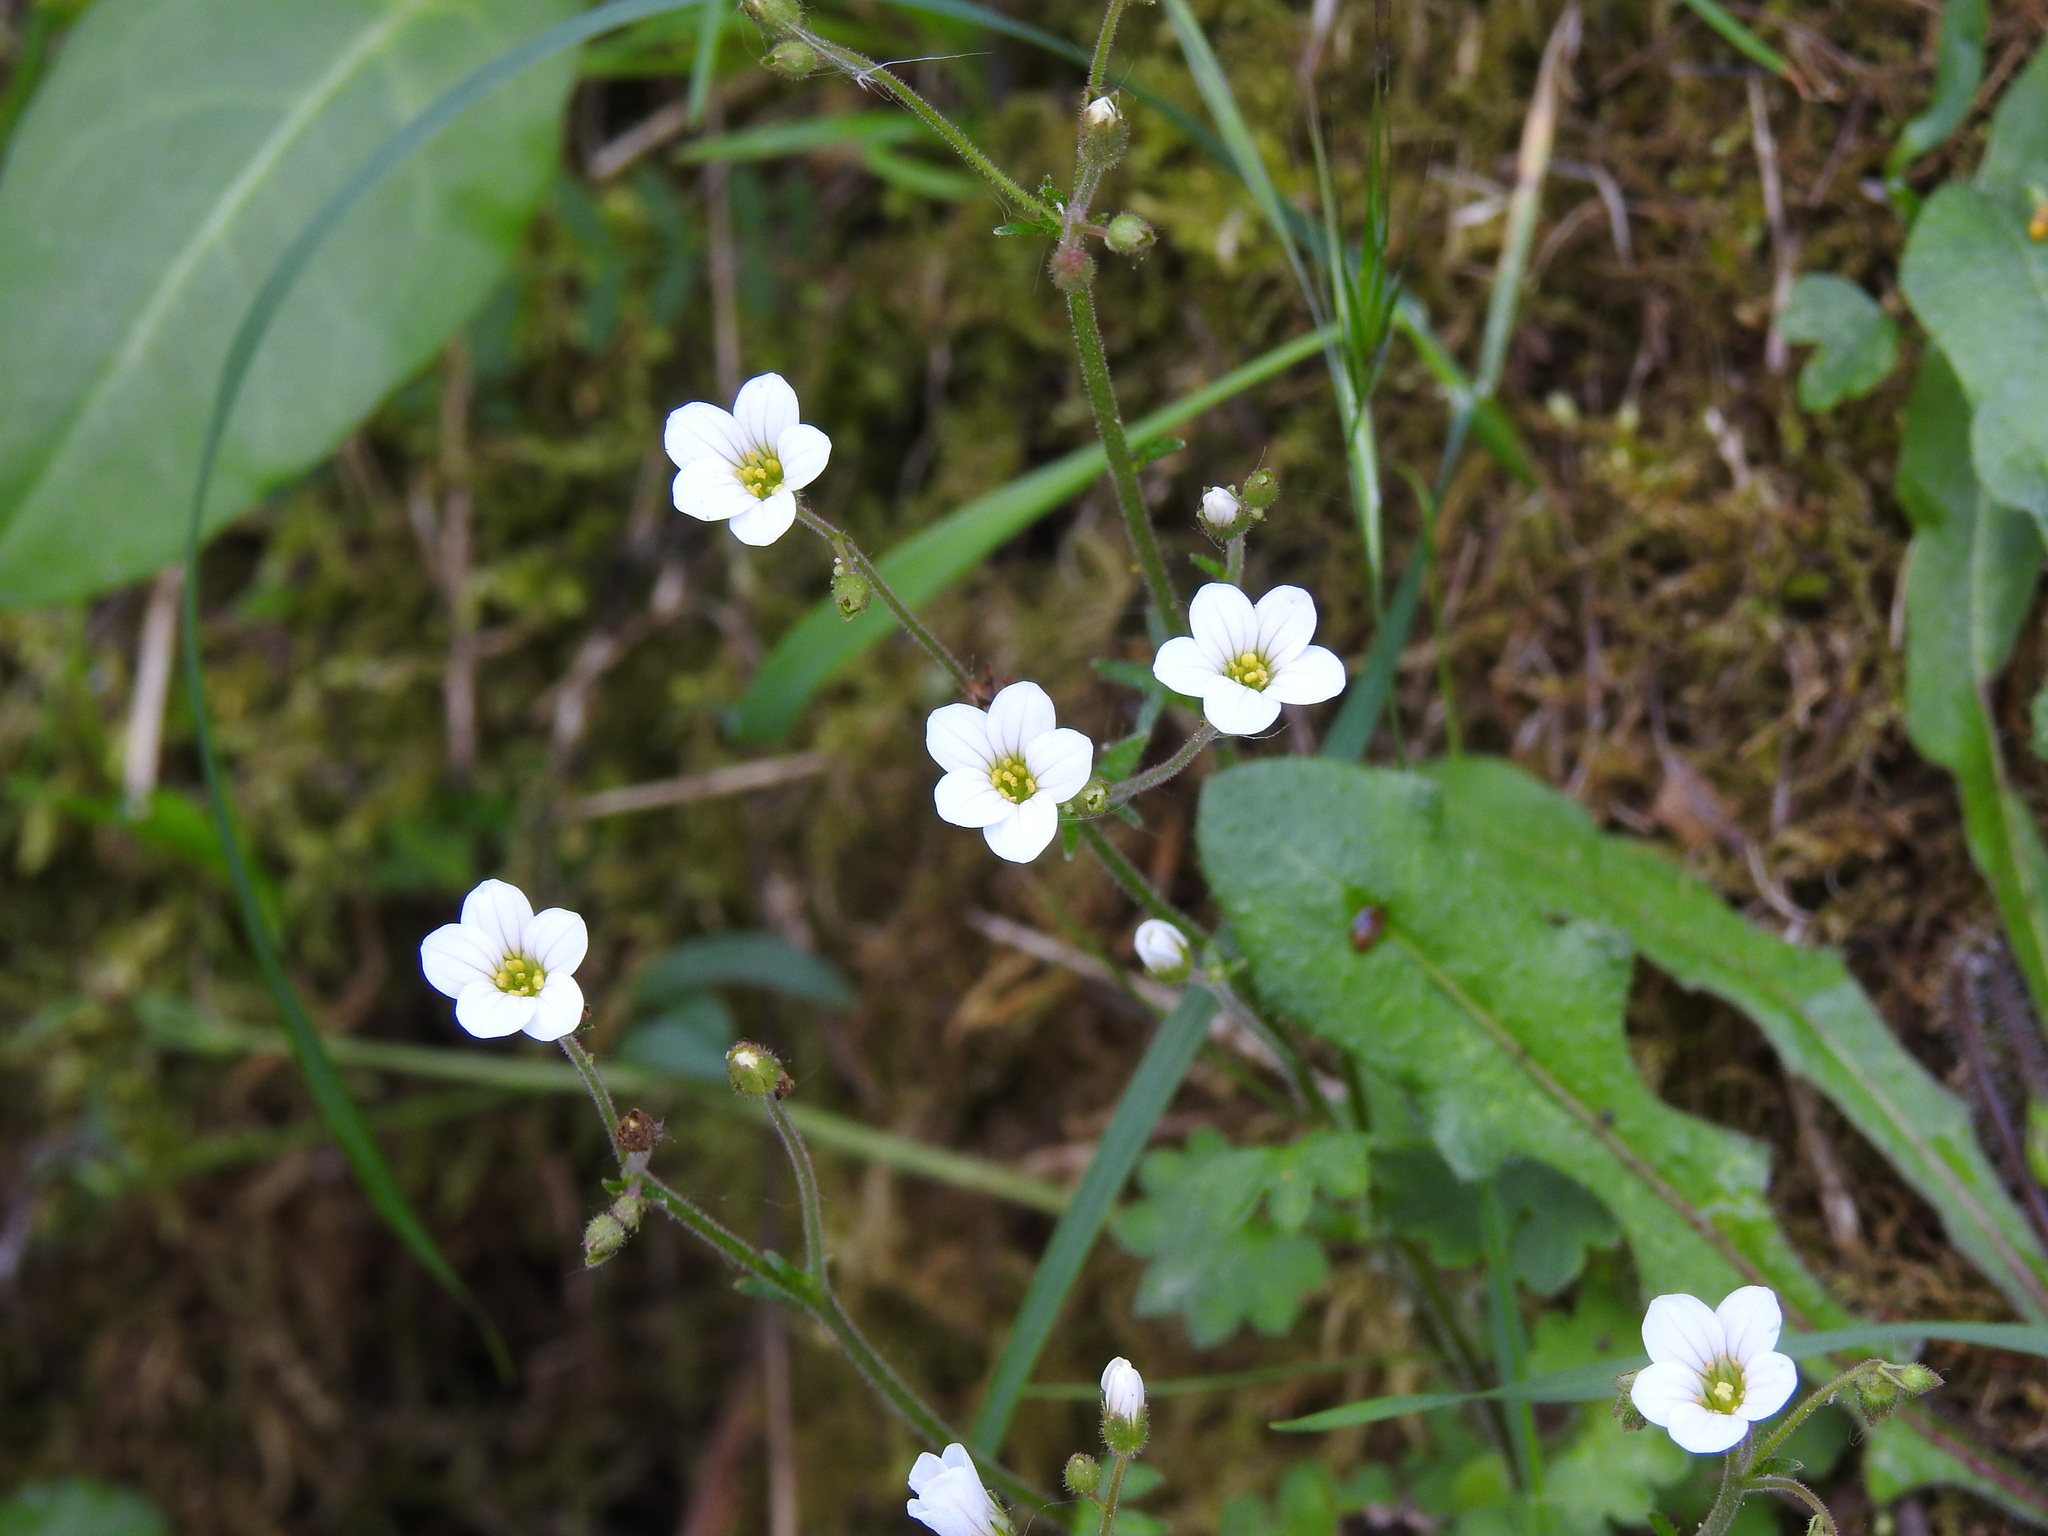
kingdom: Plantae
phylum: Tracheophyta
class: Magnoliopsida
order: Saxifragales
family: Saxifragaceae
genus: Saxifraga
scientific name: Saxifraga granulata
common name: Meadow saxifrage
